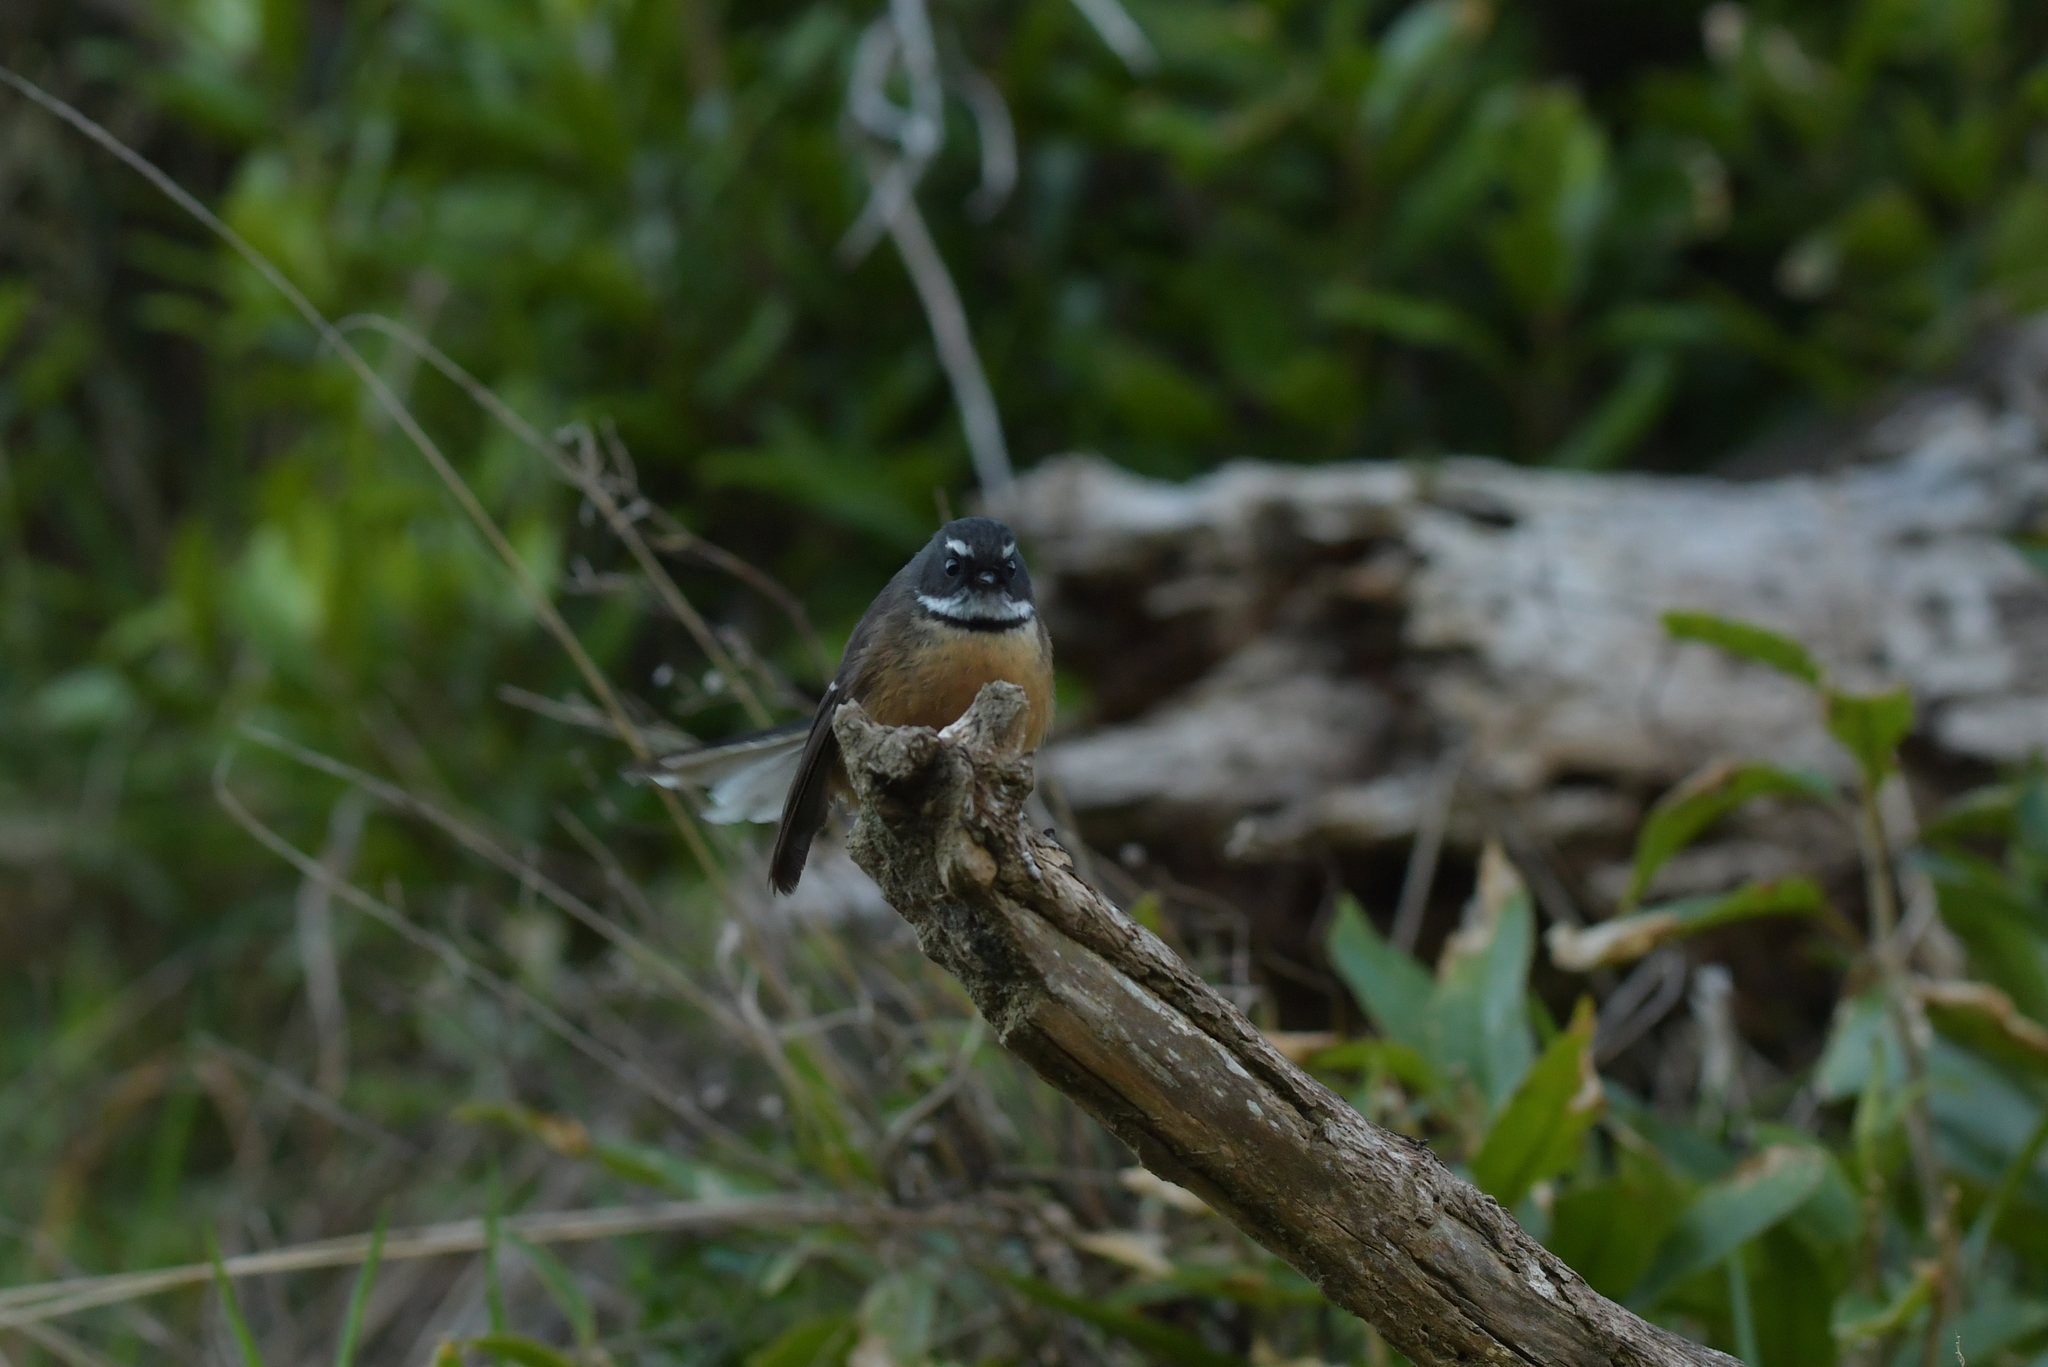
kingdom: Animalia
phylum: Chordata
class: Aves
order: Passeriformes
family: Rhipiduridae
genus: Rhipidura
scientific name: Rhipidura fuliginosa
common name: New zealand fantail
